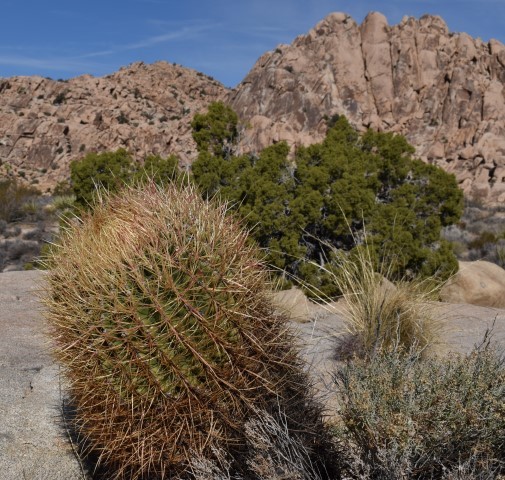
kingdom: Plantae
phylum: Tracheophyta
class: Magnoliopsida
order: Caryophyllales
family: Cactaceae
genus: Ferocactus
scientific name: Ferocactus cylindraceus
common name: California barrel cactus
